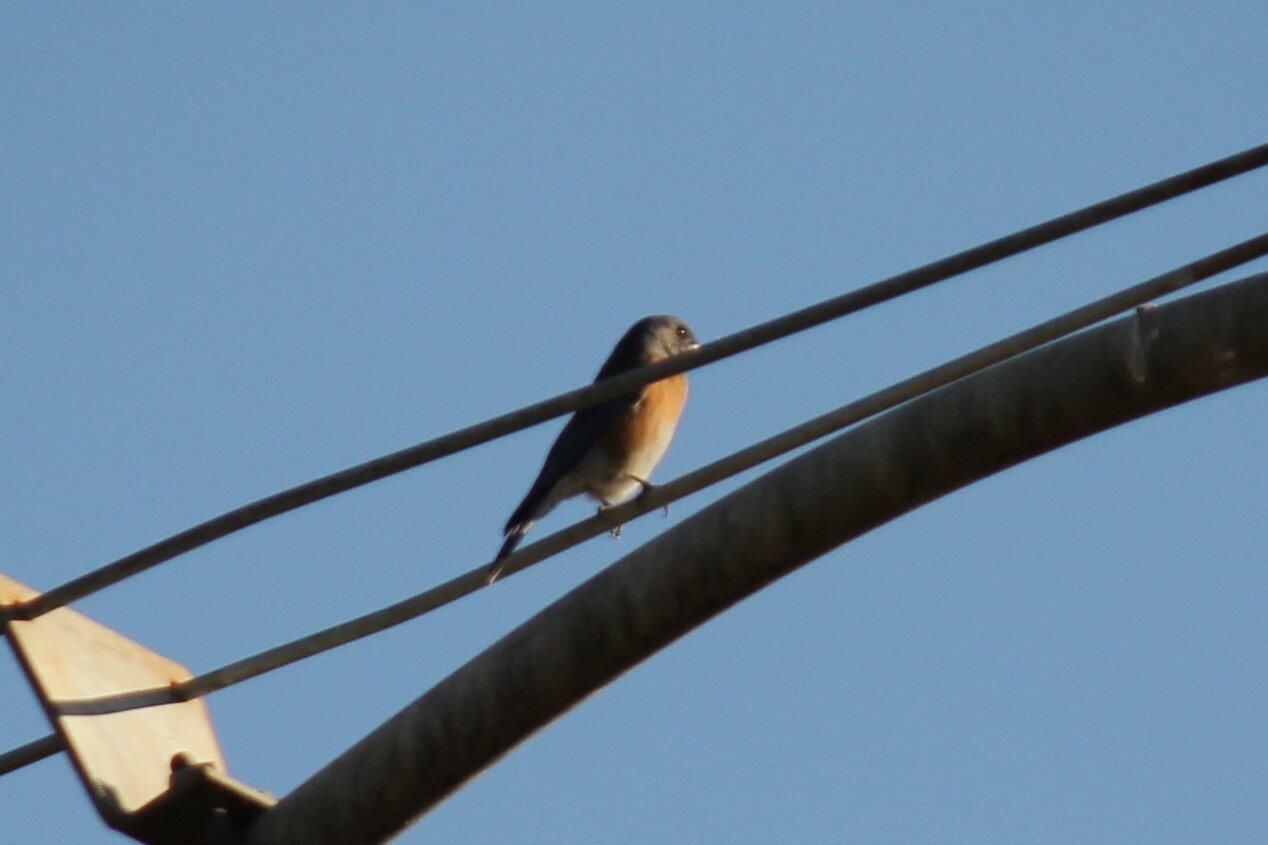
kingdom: Animalia
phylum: Chordata
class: Aves
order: Passeriformes
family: Turdidae
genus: Sialia
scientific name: Sialia mexicana
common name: Western bluebird
